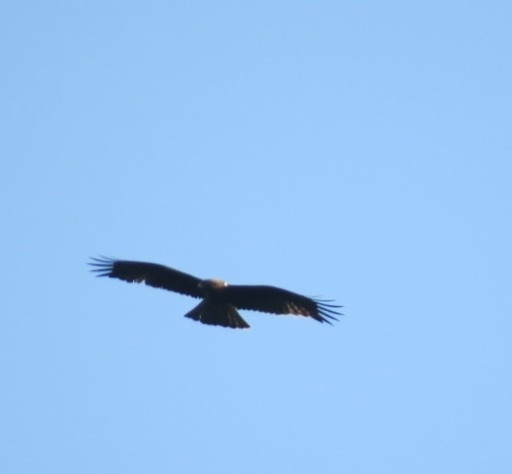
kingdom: Animalia
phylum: Chordata
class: Aves
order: Accipitriformes
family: Accipitridae
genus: Hieraaetus
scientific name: Hieraaetus pennatus
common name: Booted eagle
